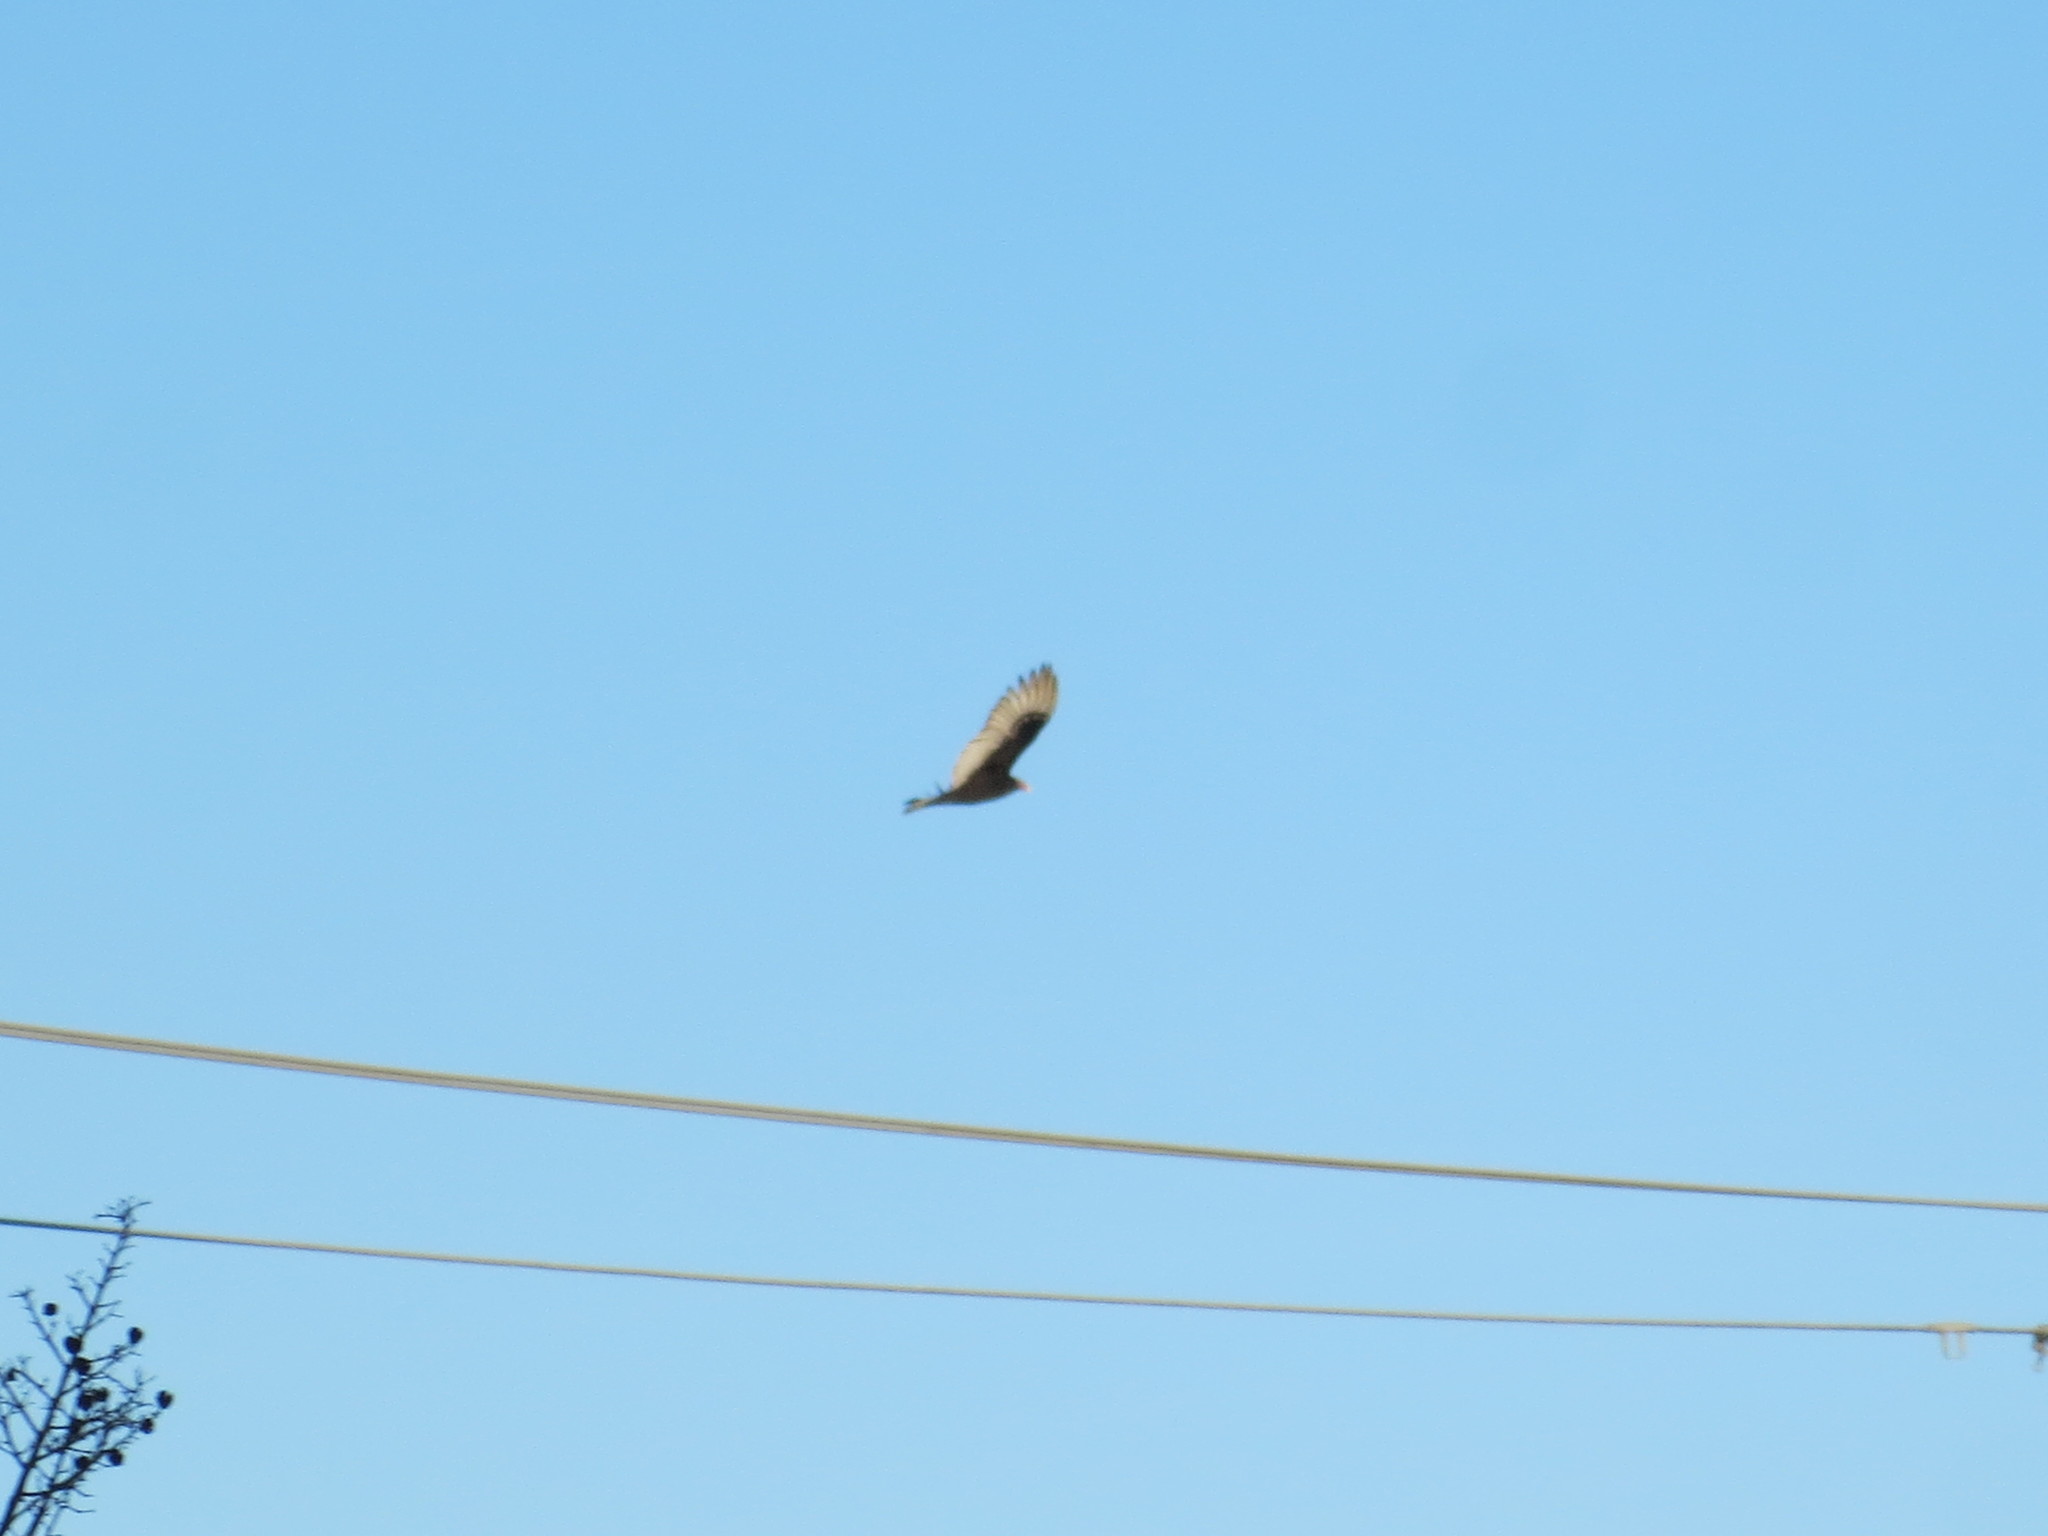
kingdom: Animalia
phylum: Chordata
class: Aves
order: Accipitriformes
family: Cathartidae
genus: Cathartes
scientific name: Cathartes aura
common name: Turkey vulture
